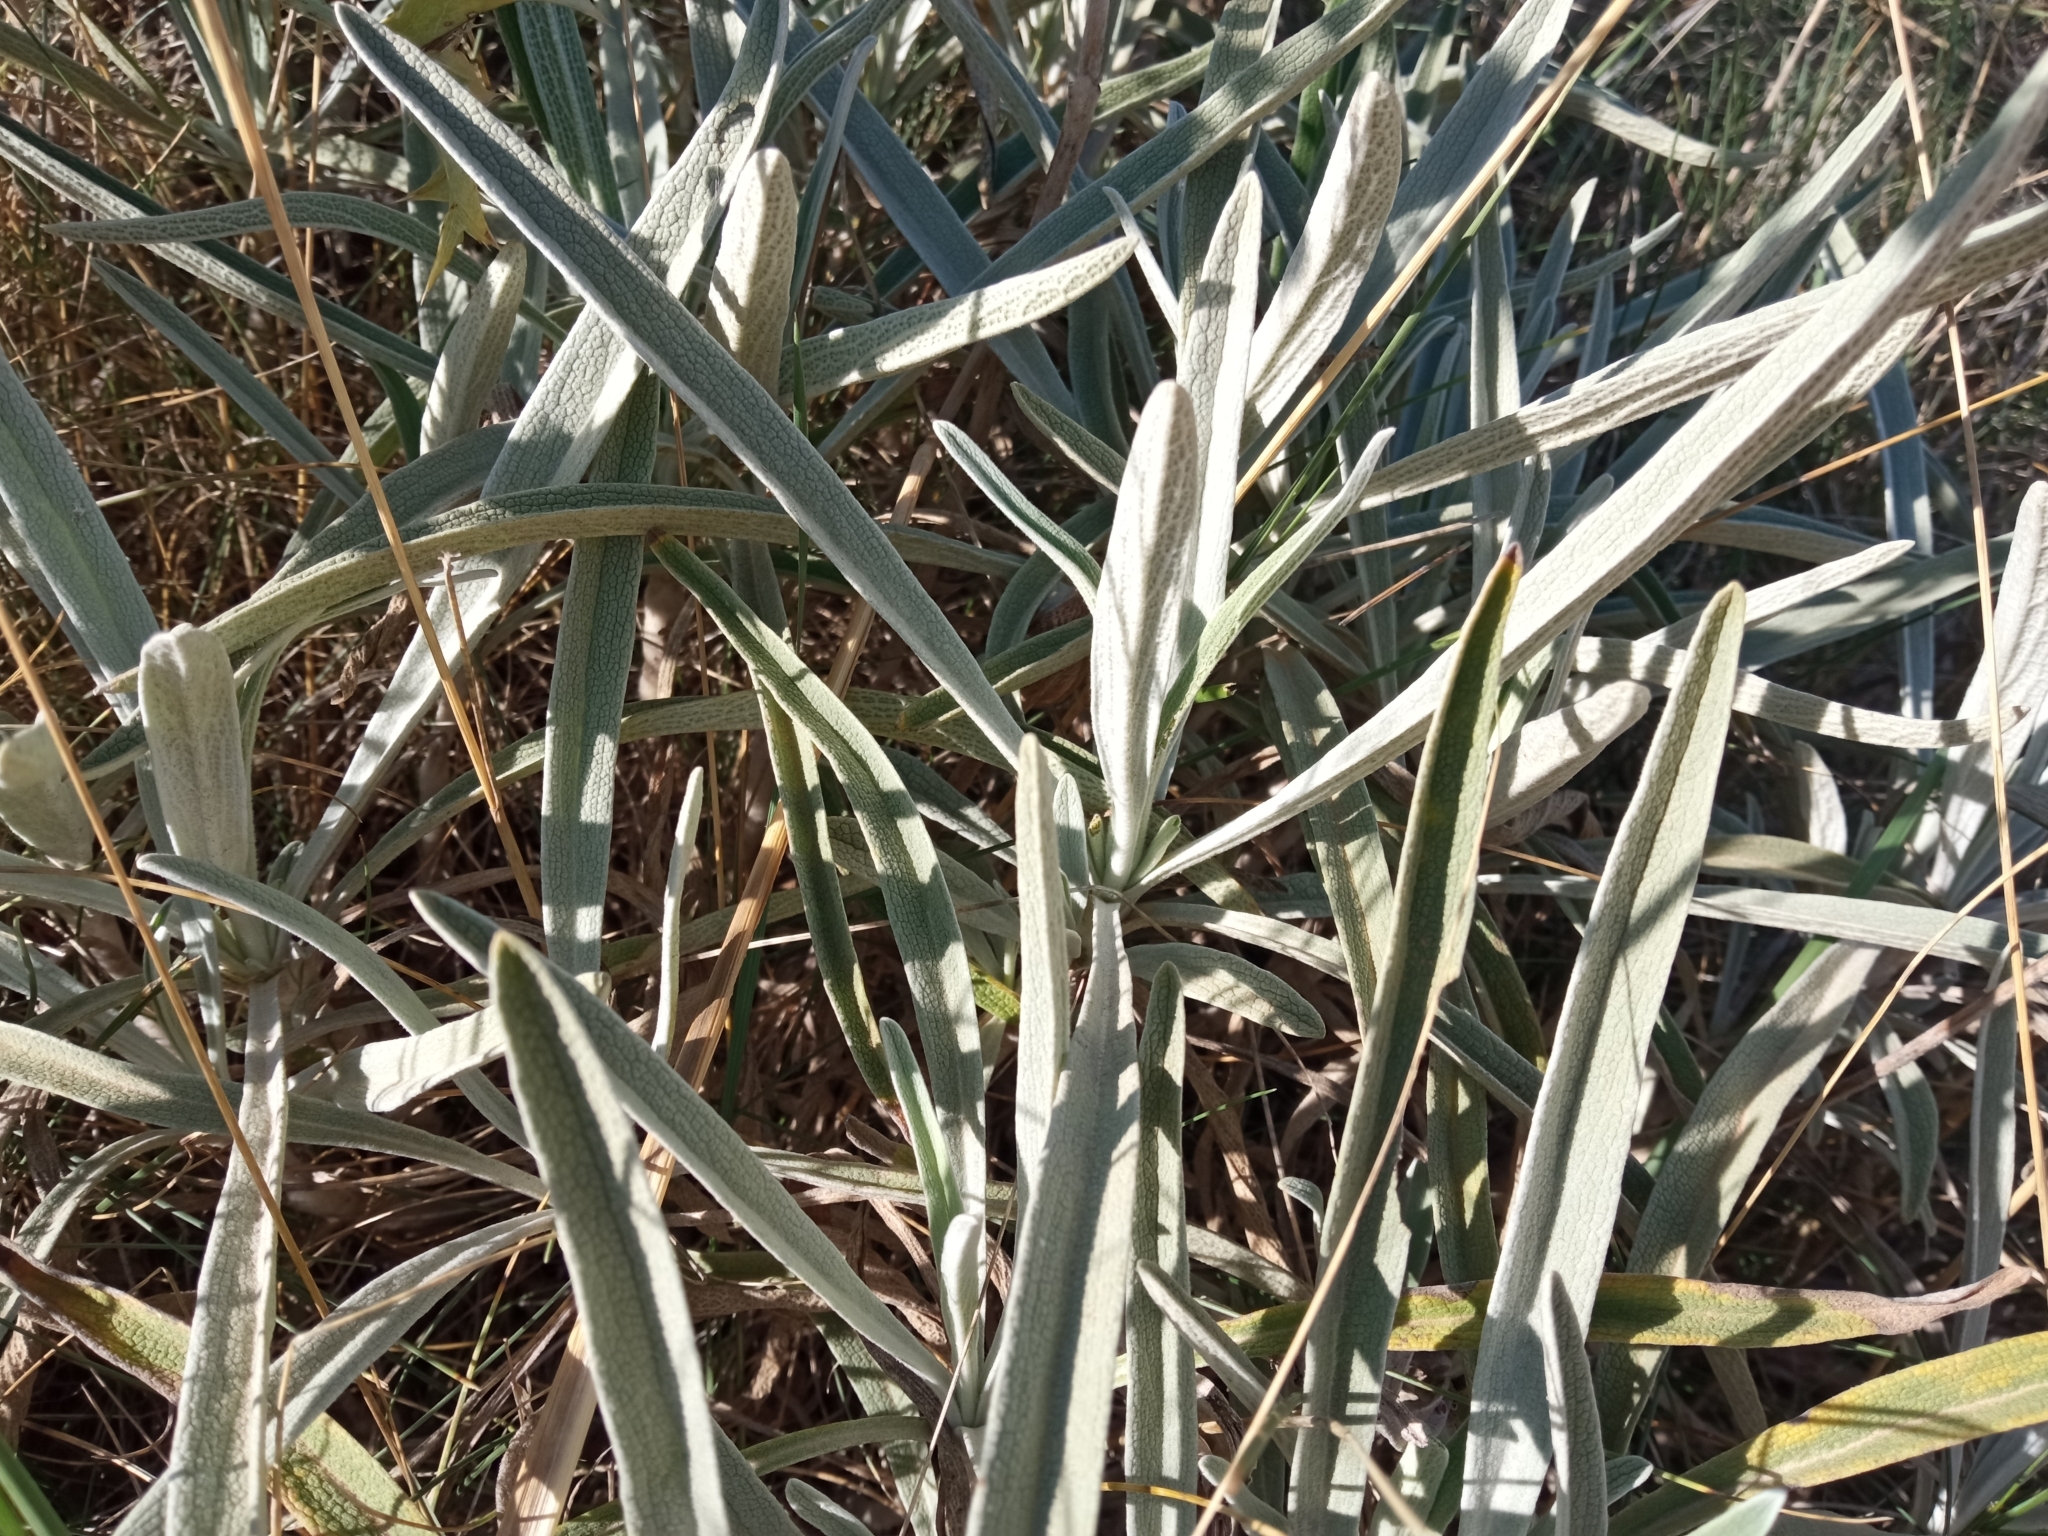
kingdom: Plantae
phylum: Tracheophyta
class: Magnoliopsida
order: Lamiales
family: Lamiaceae
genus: Phlomis
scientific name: Phlomis lychnitis
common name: Lampwickplant
